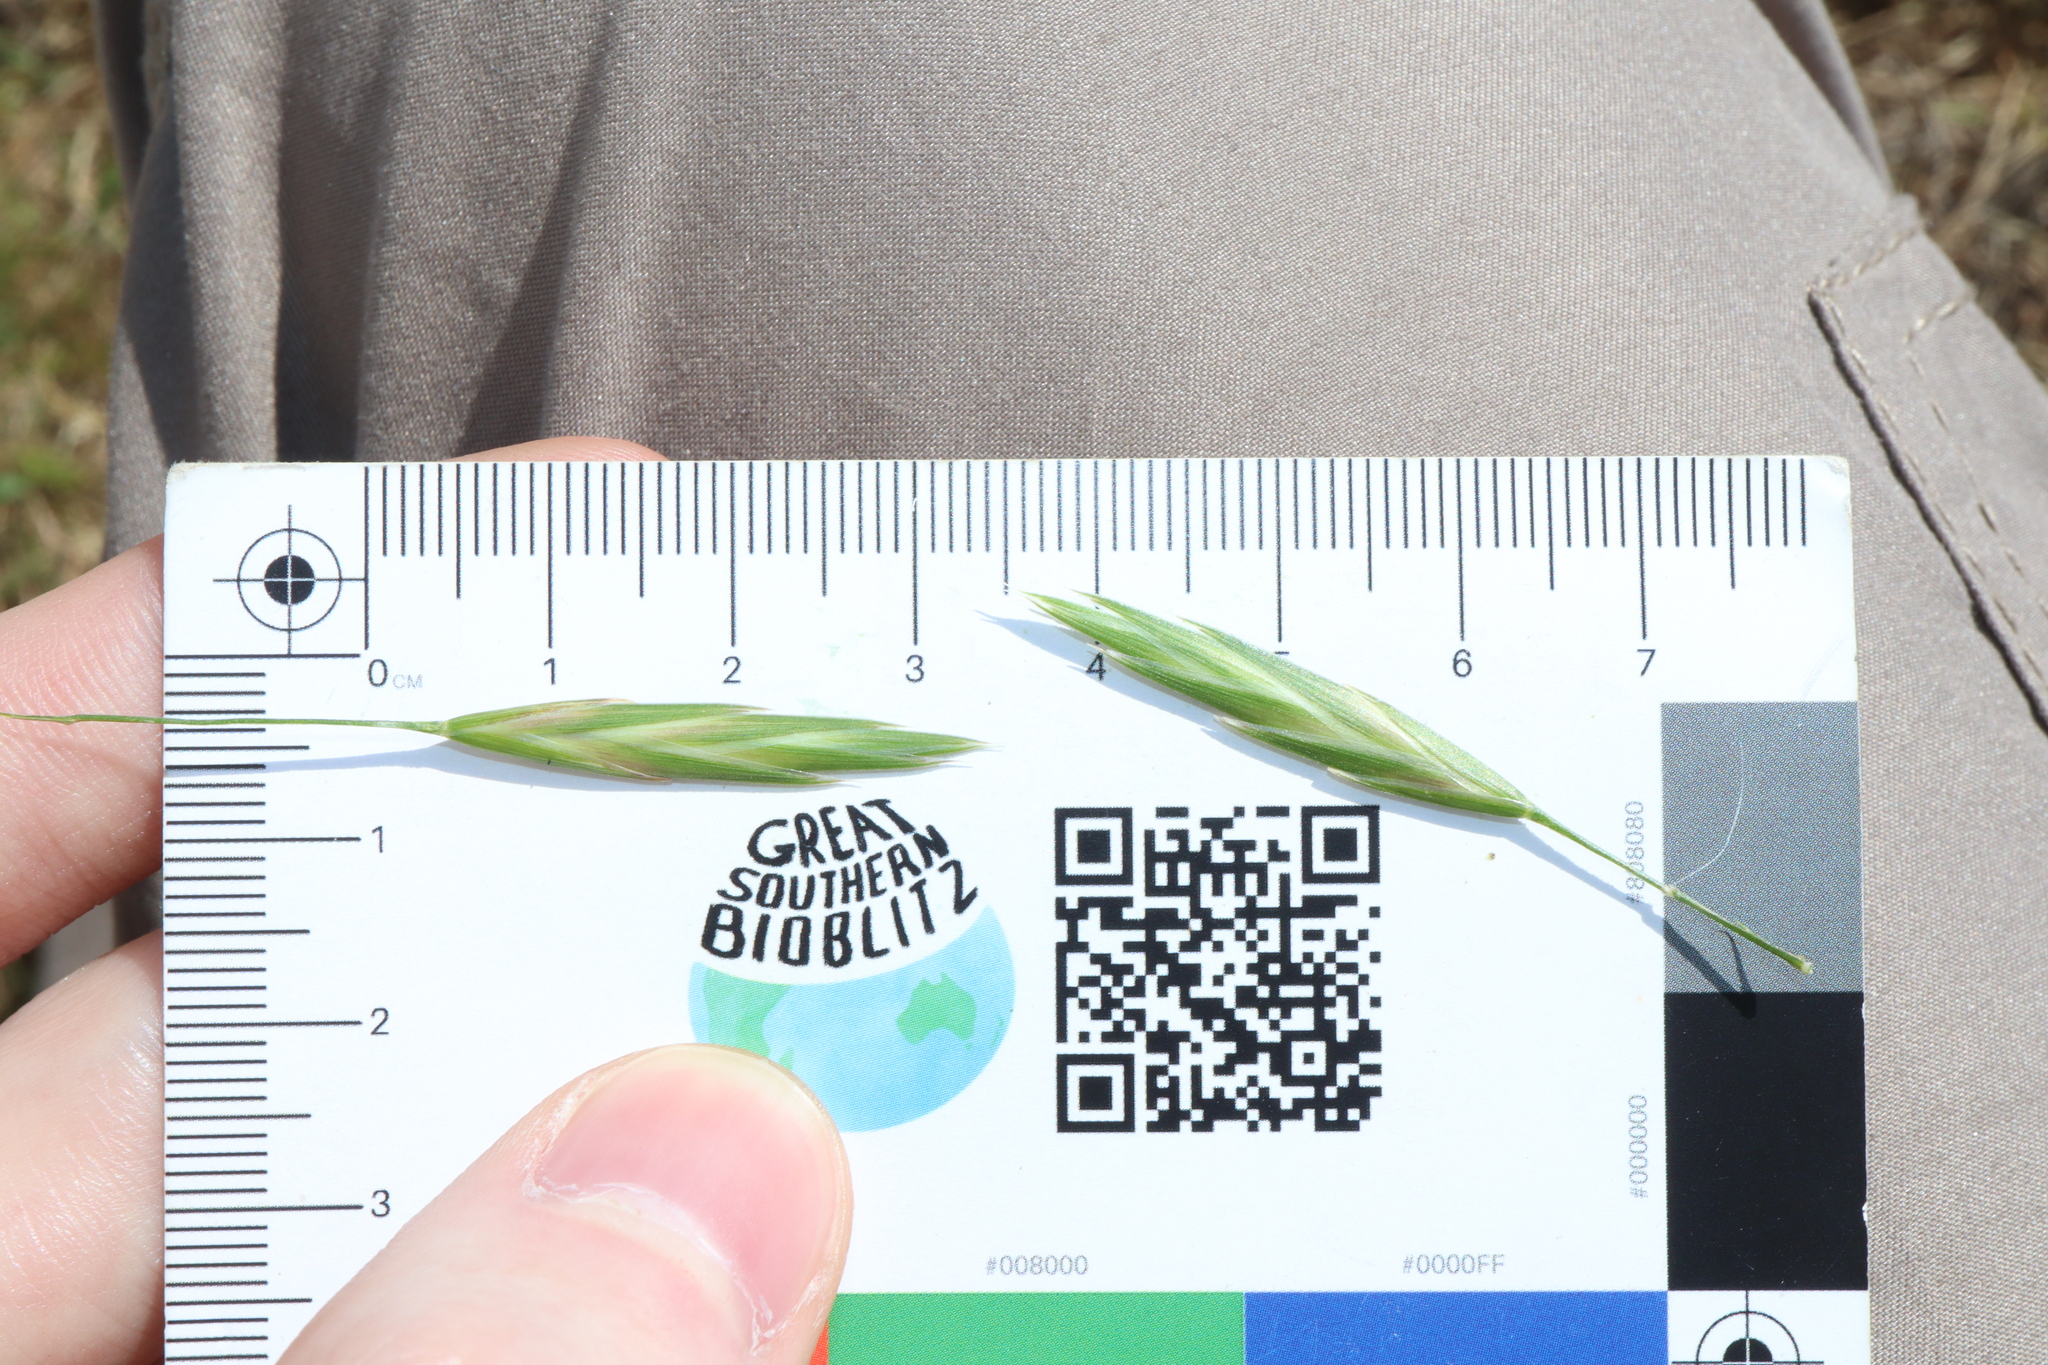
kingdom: Plantae
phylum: Tracheophyta
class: Liliopsida
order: Poales
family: Poaceae
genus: Bromus
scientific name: Bromus catharticus
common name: Rescuegrass
